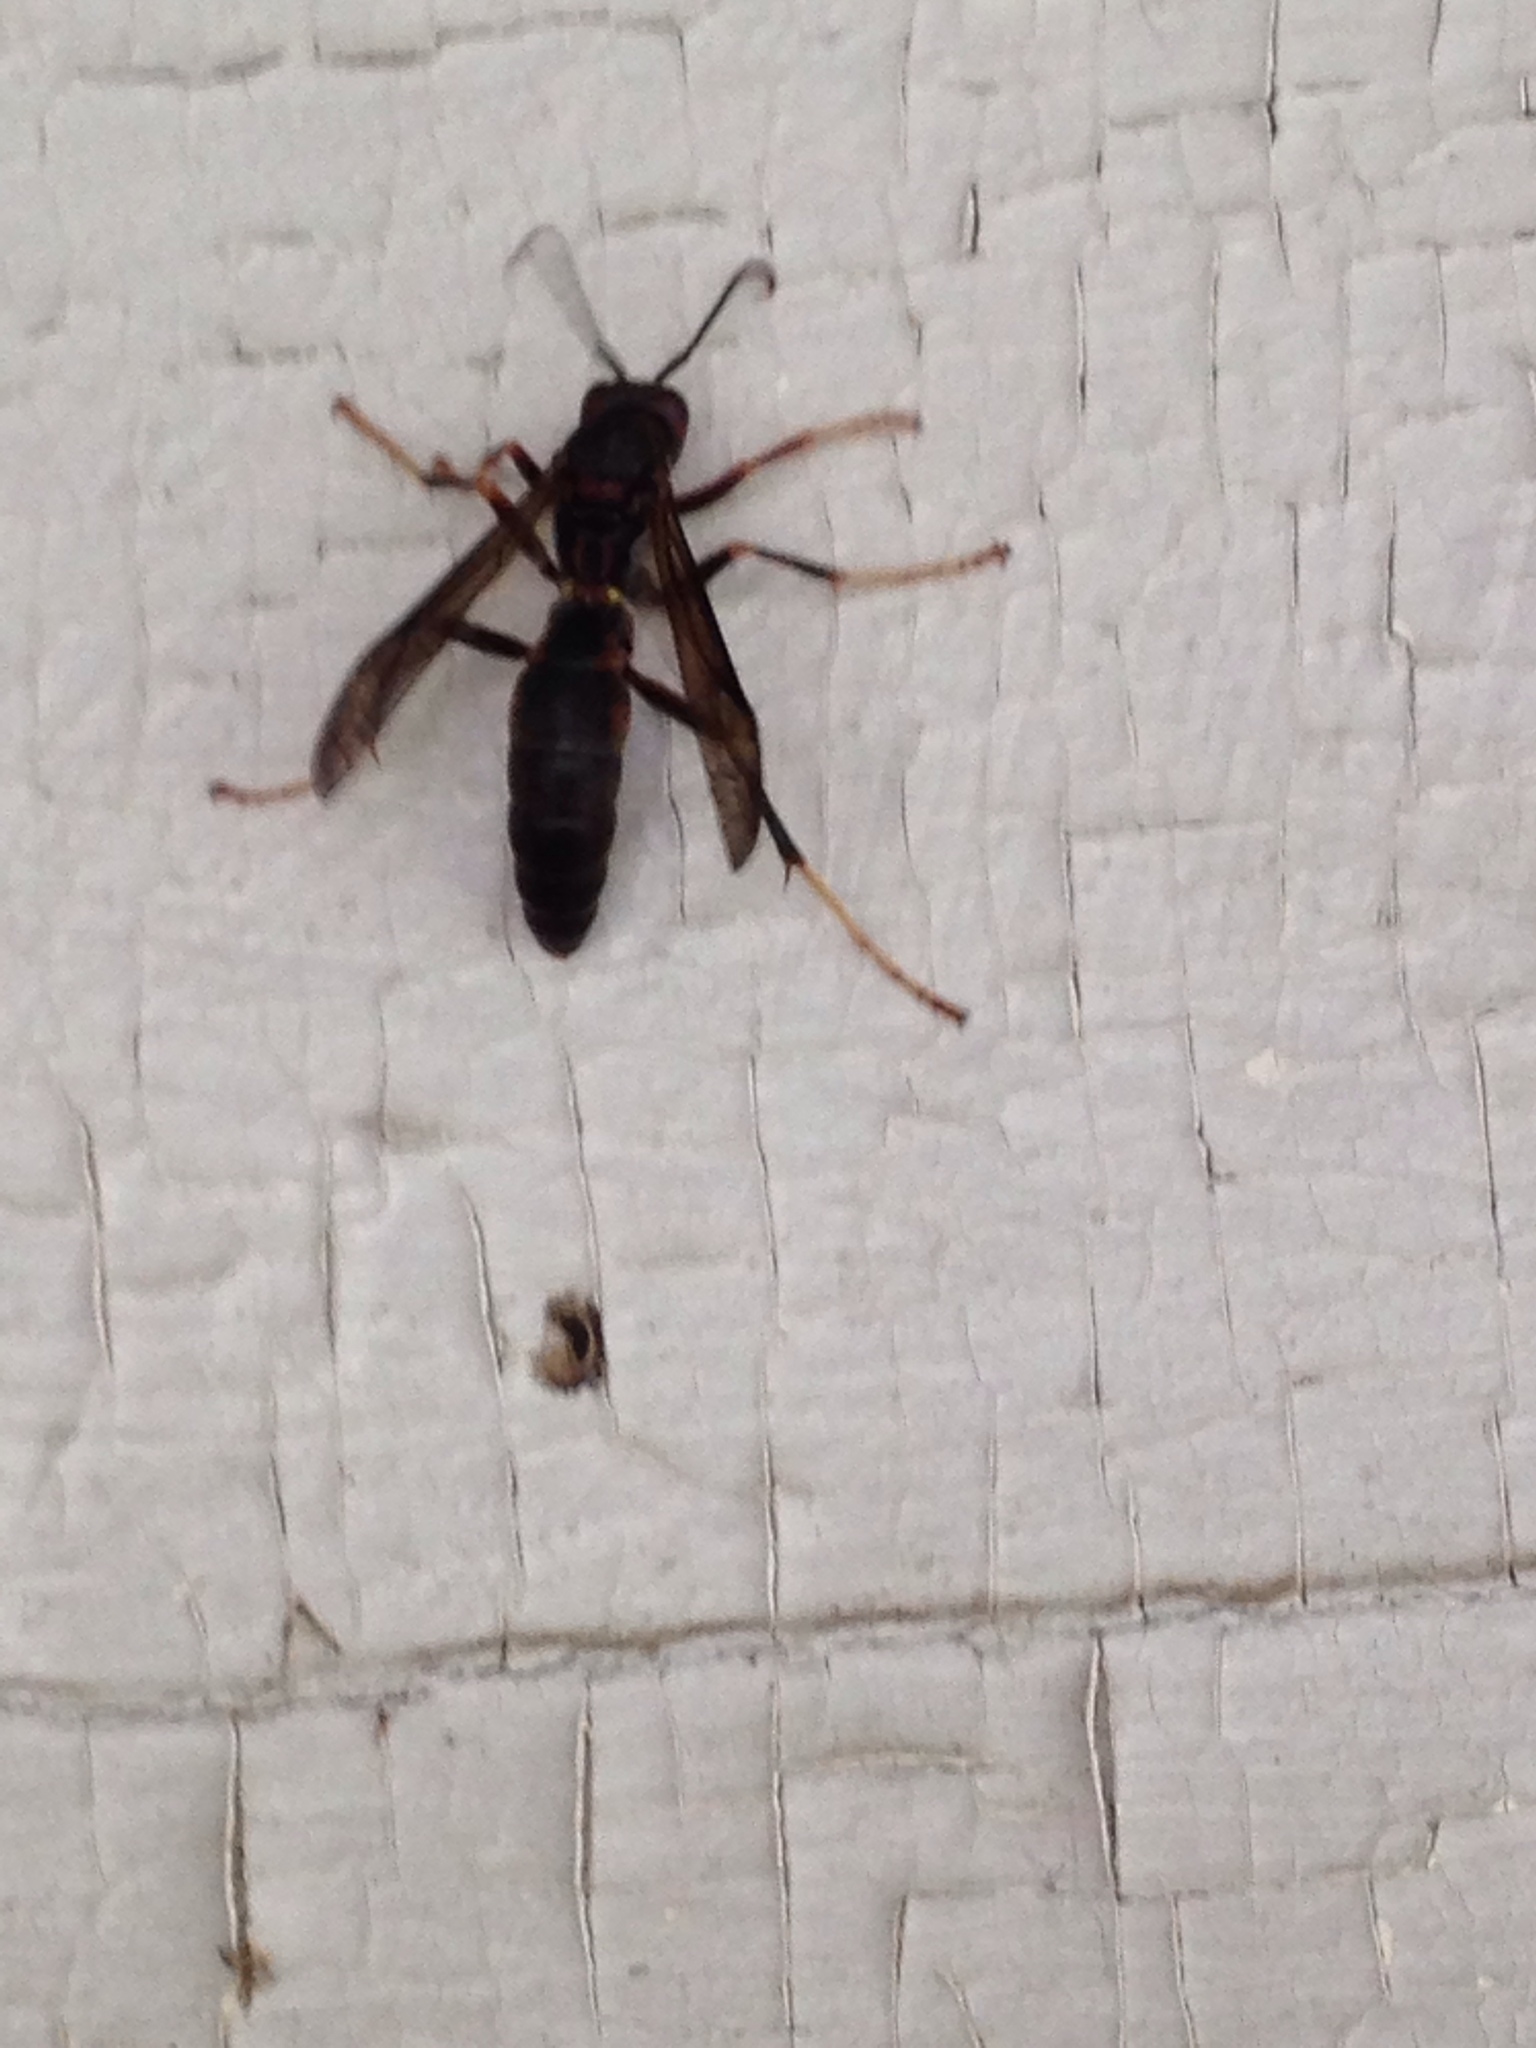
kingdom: Animalia
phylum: Arthropoda
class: Insecta
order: Hymenoptera
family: Eumenidae
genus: Polistes
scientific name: Polistes fuscatus
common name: Dark paper wasp
